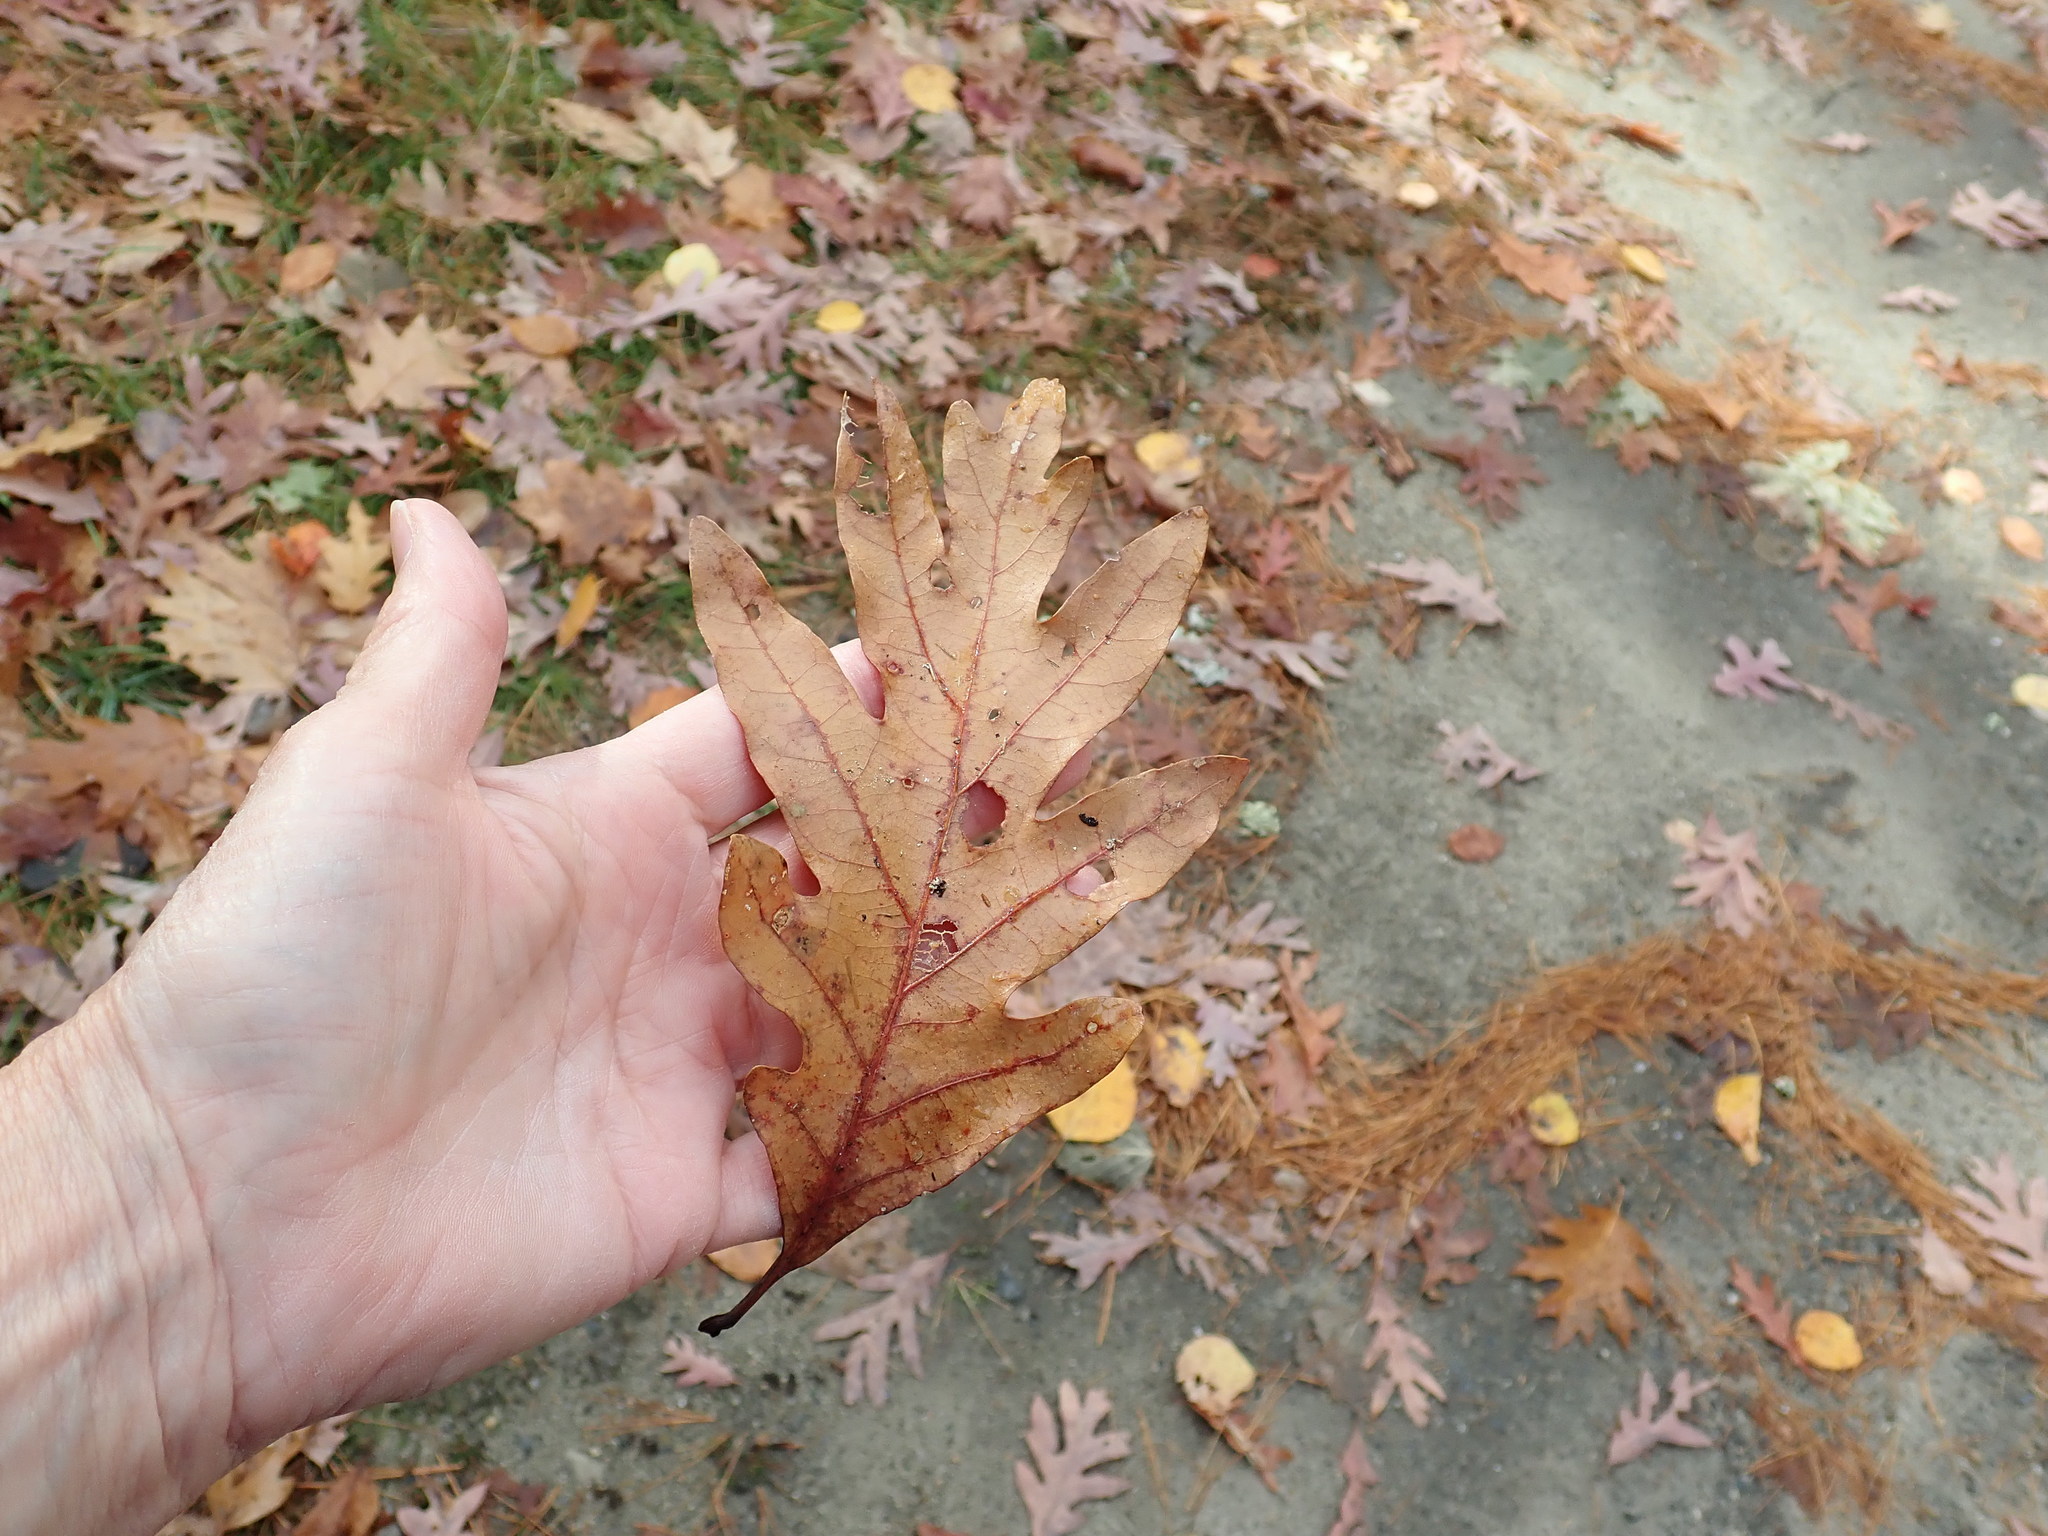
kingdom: Plantae
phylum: Tracheophyta
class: Magnoliopsida
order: Fagales
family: Fagaceae
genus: Quercus
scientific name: Quercus alba
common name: White oak
